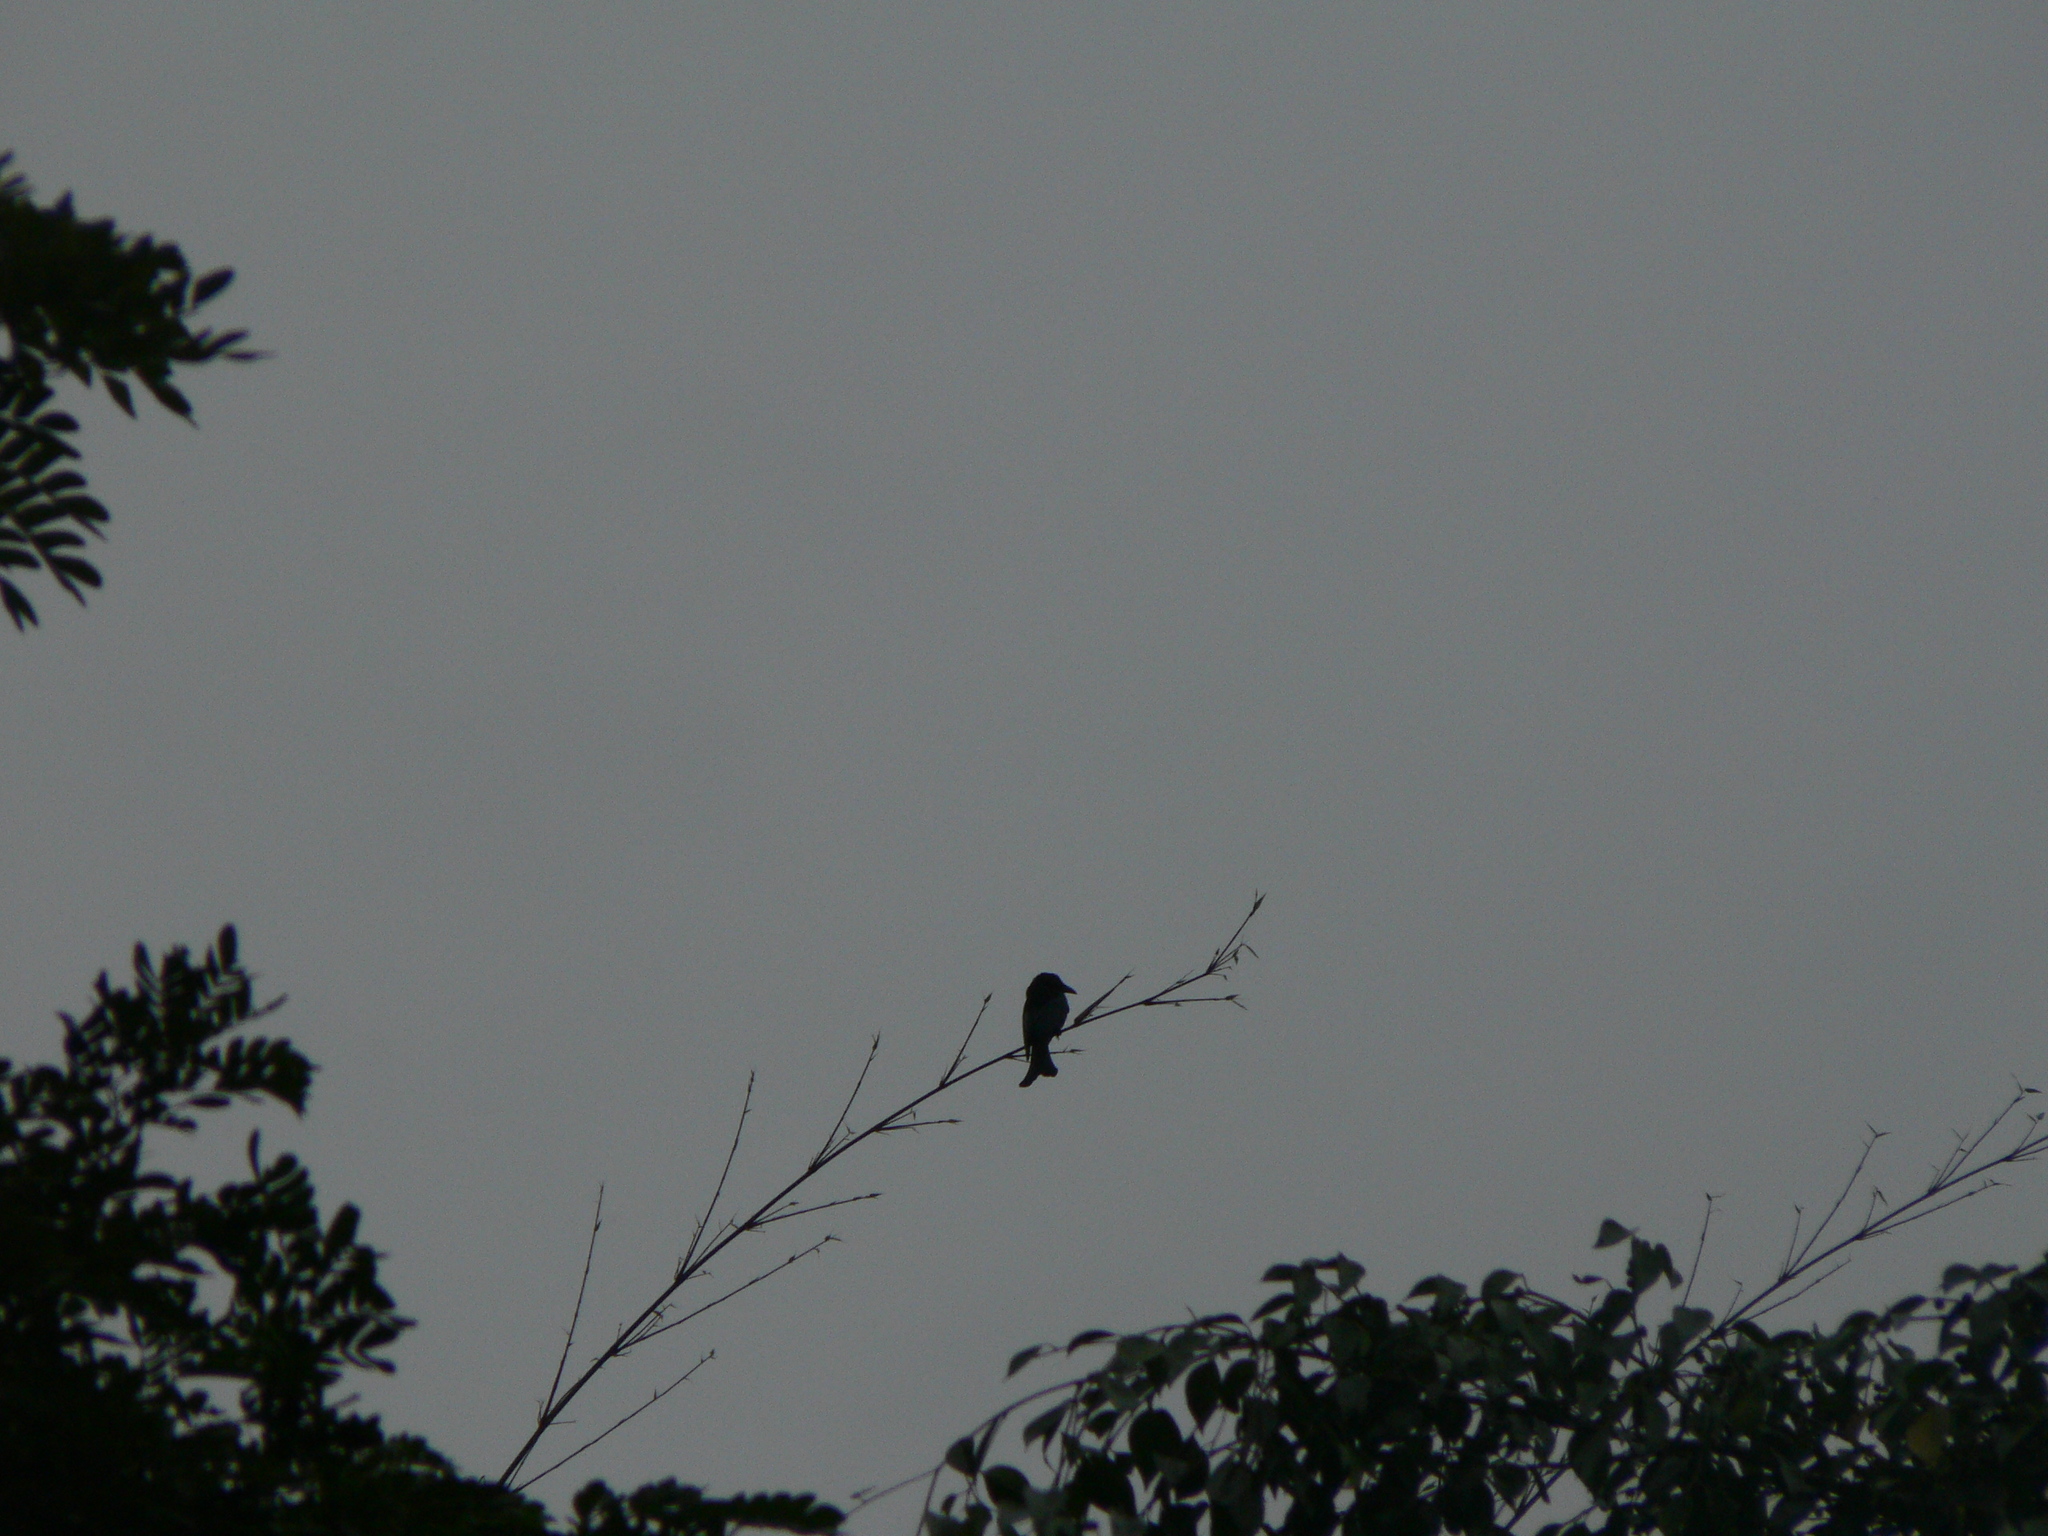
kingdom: Animalia
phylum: Chordata
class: Aves
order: Passeriformes
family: Dicruridae
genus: Dicrurus
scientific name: Dicrurus bracteatus
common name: Spangled drongo
